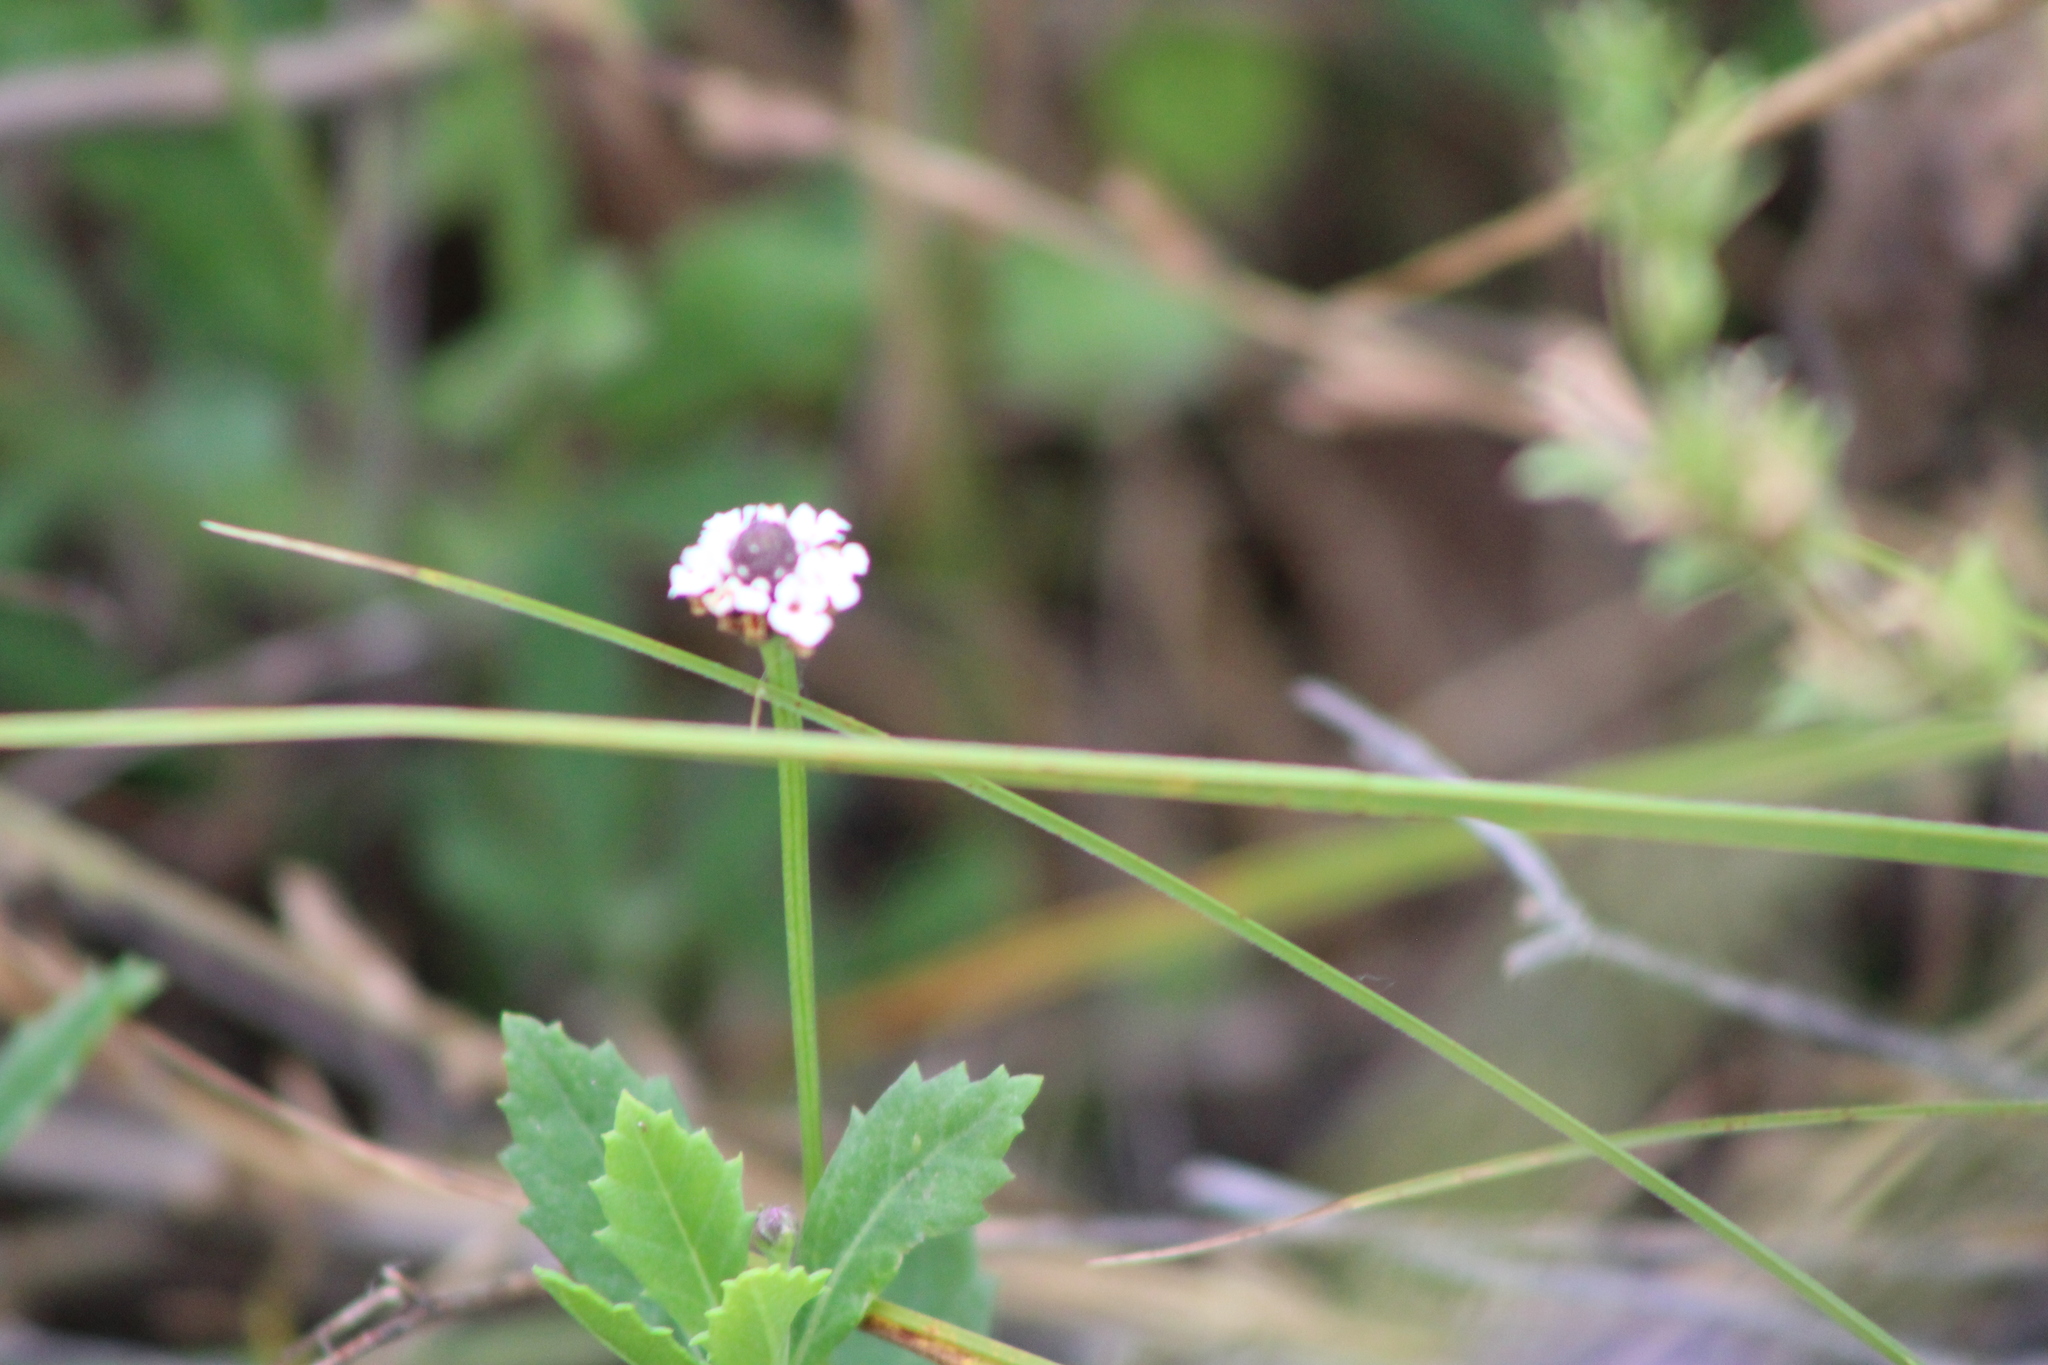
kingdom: Plantae
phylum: Tracheophyta
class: Magnoliopsida
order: Lamiales
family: Verbenaceae
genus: Phyla
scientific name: Phyla nodiflora
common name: Frogfruit
